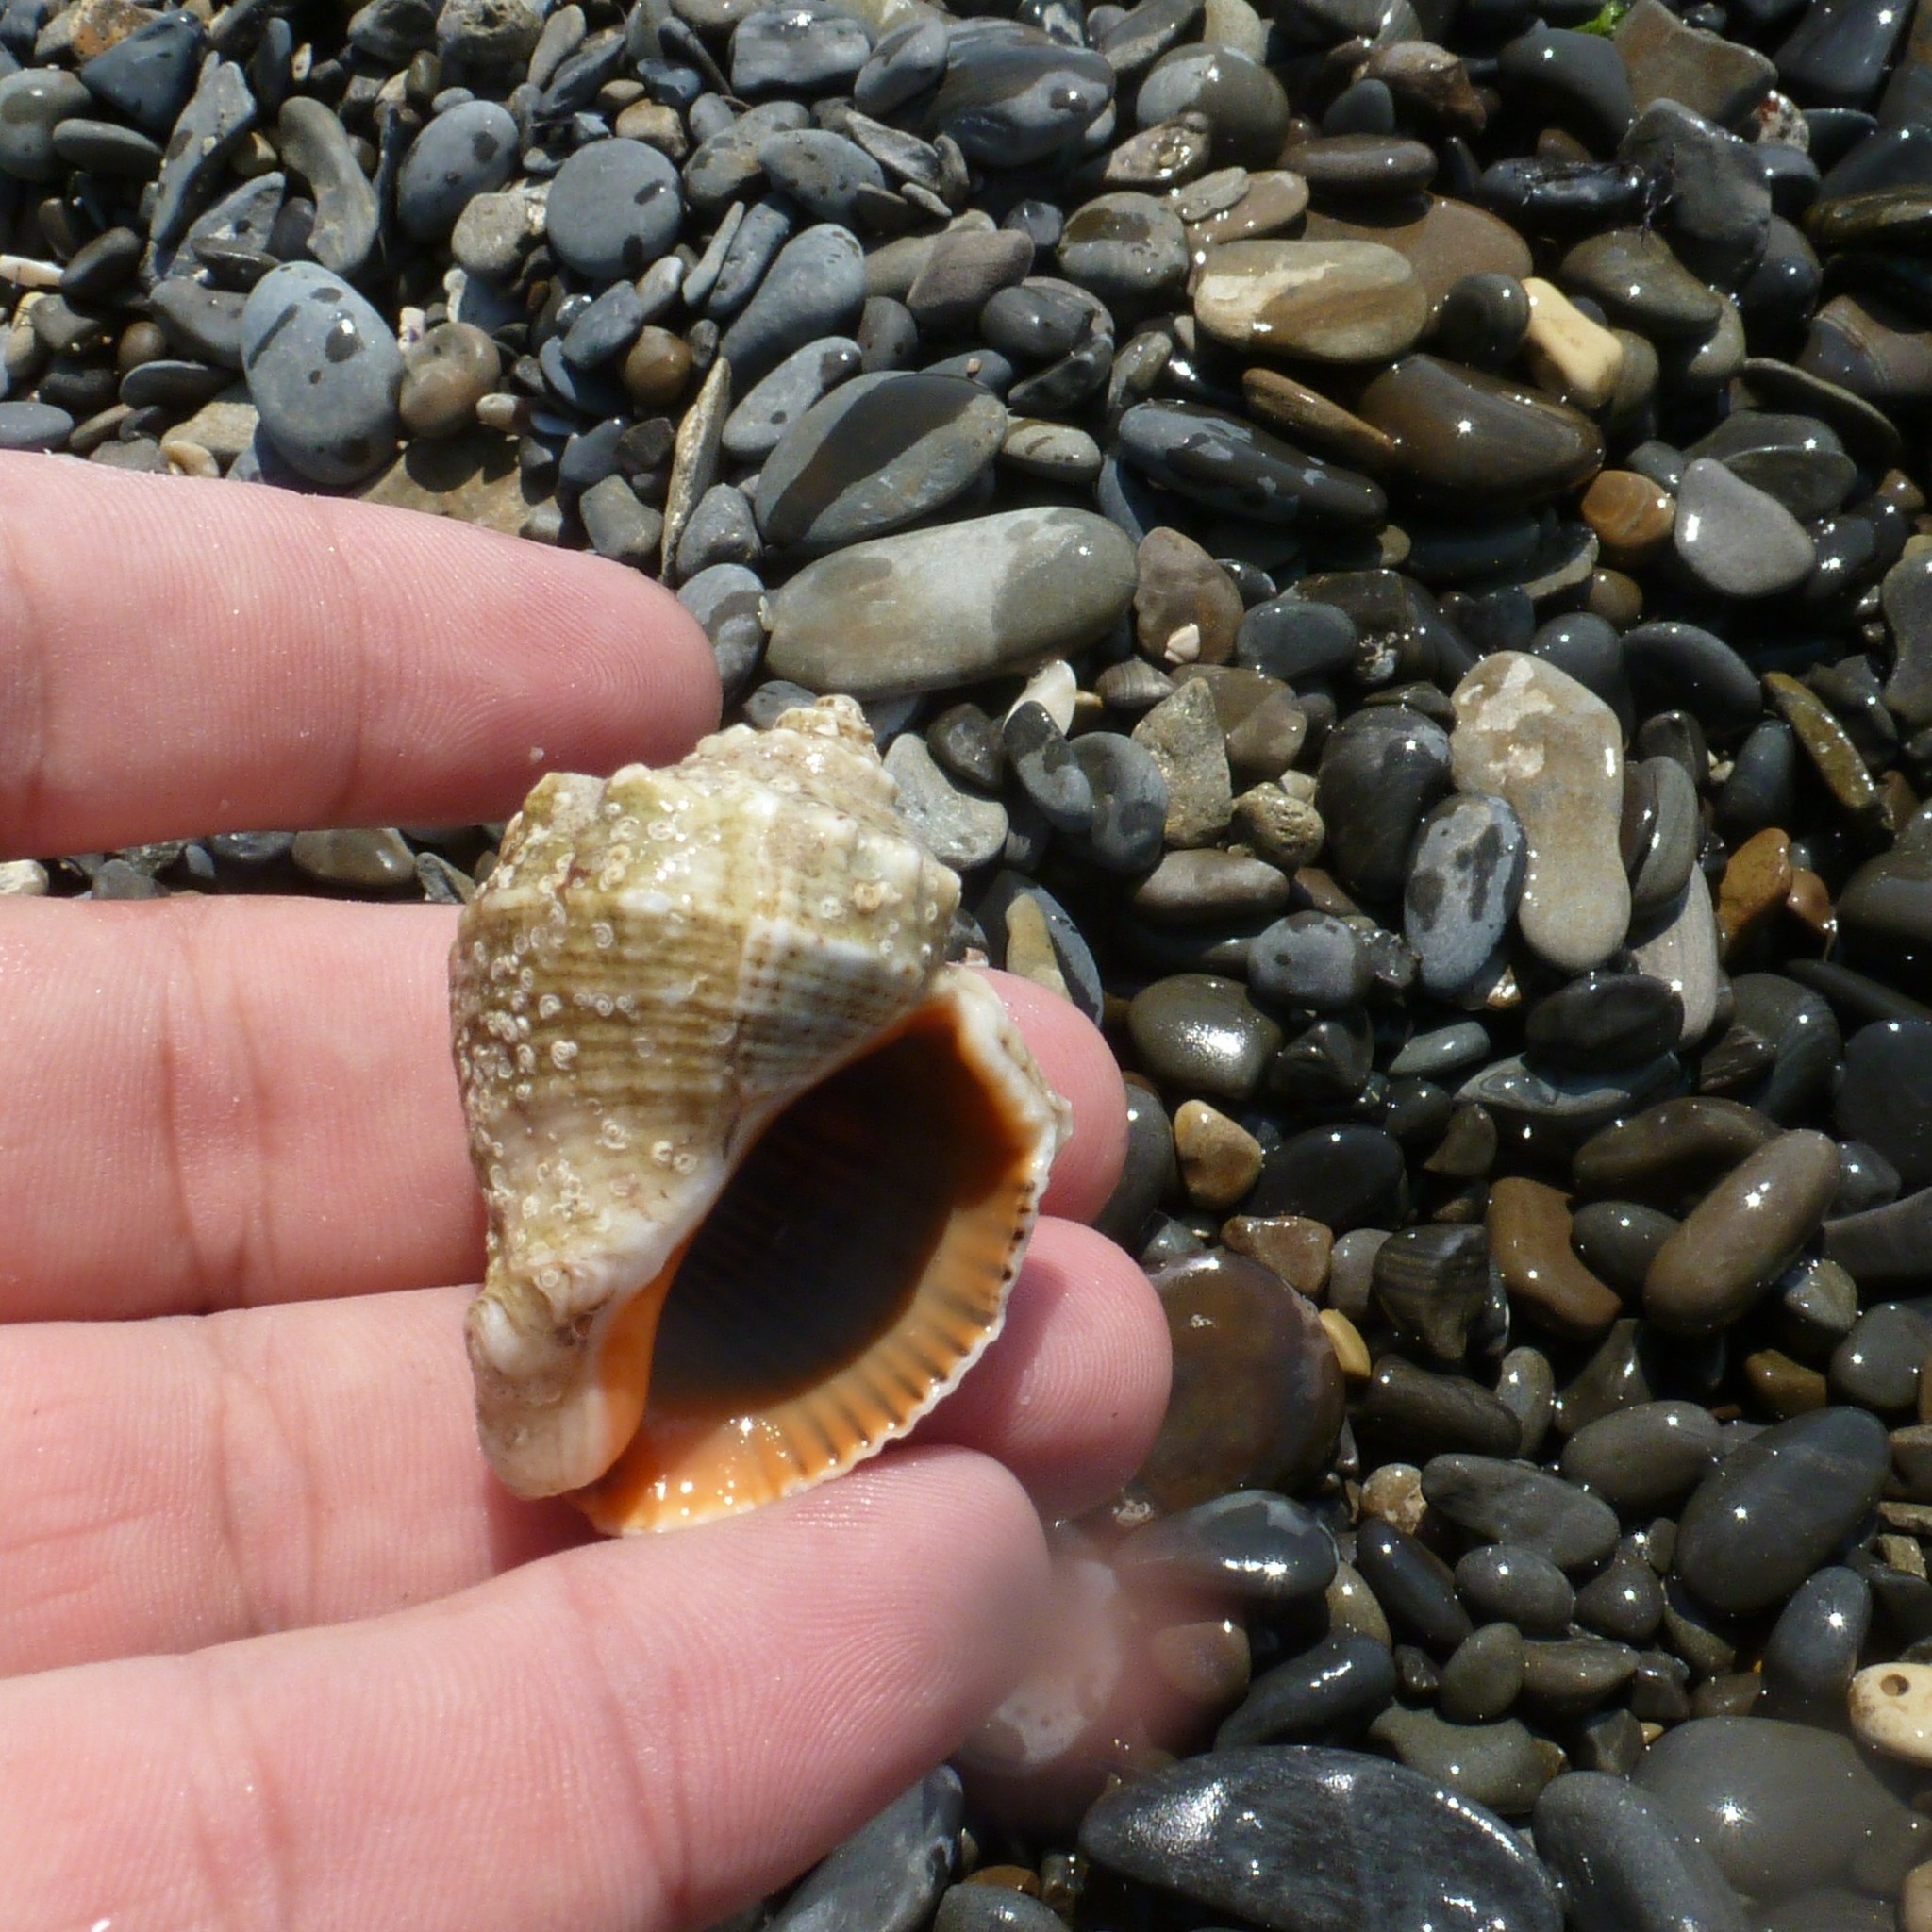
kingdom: Animalia
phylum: Mollusca
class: Gastropoda
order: Neogastropoda
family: Muricidae
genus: Rapana
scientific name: Rapana venosa
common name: Veined rapa whelk
